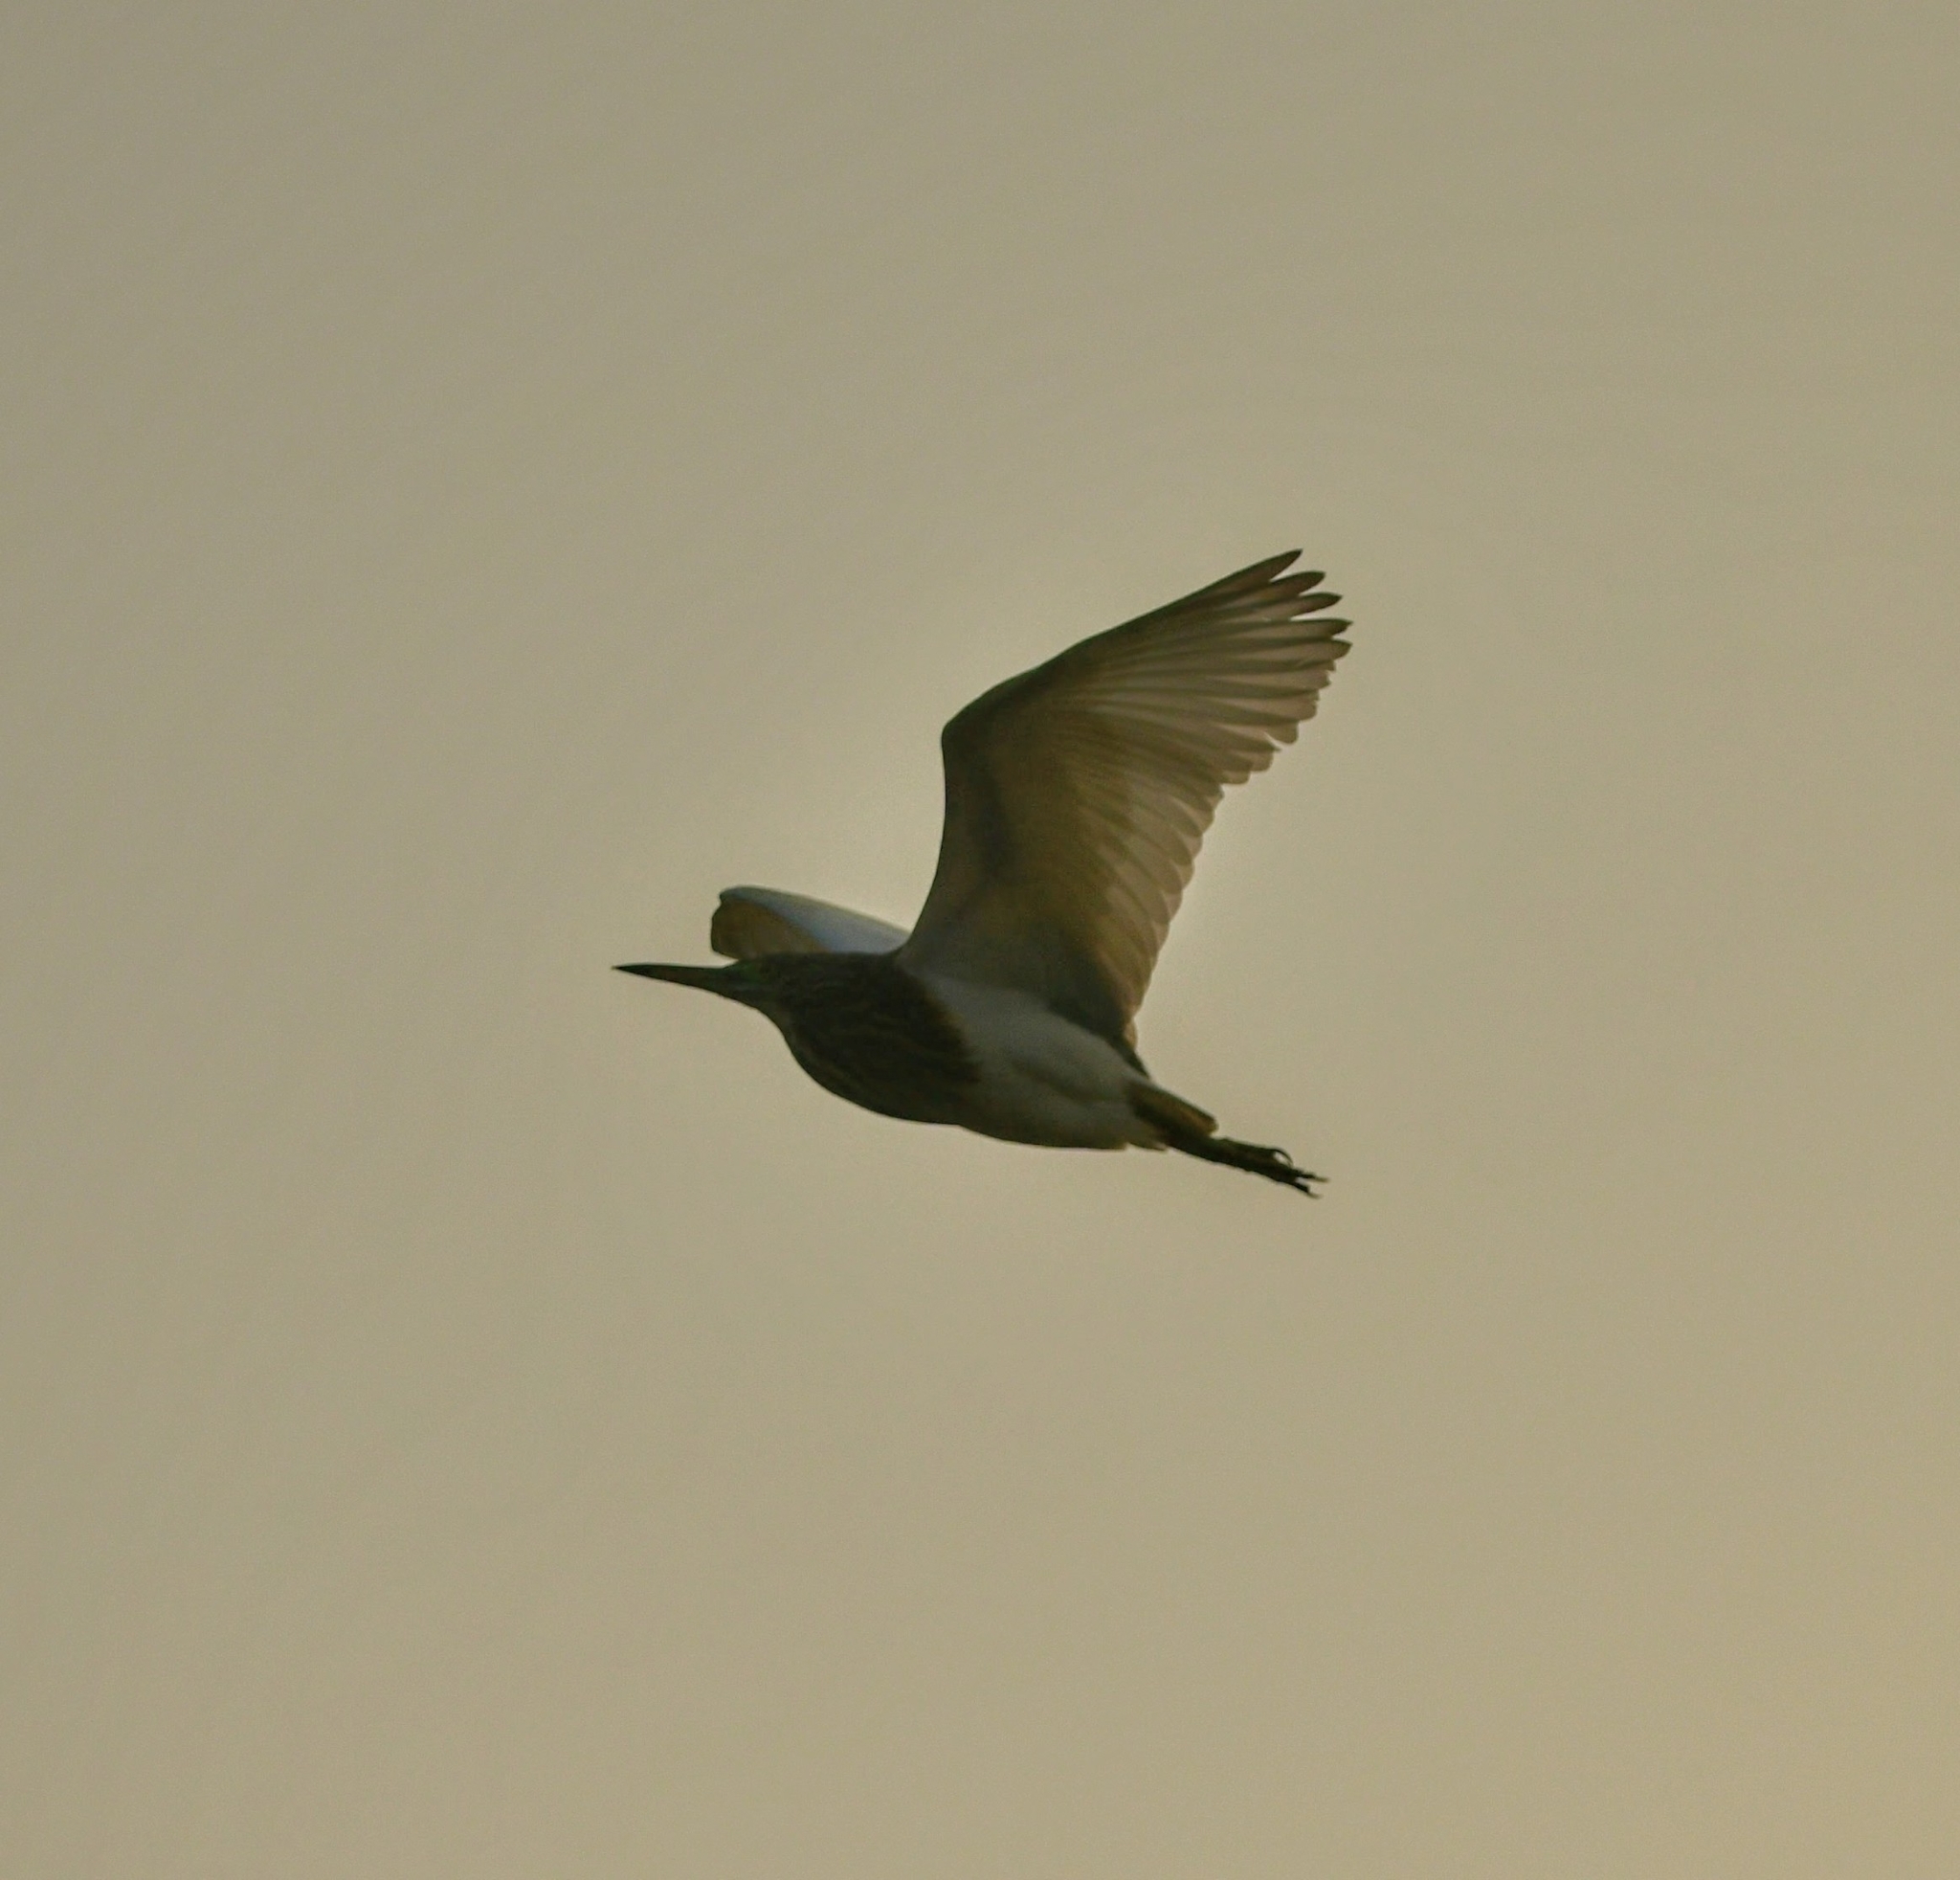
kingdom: Animalia
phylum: Chordata
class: Aves
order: Pelecaniformes
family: Ardeidae
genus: Ardeola
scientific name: Ardeola grayii
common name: Indian pond heron
